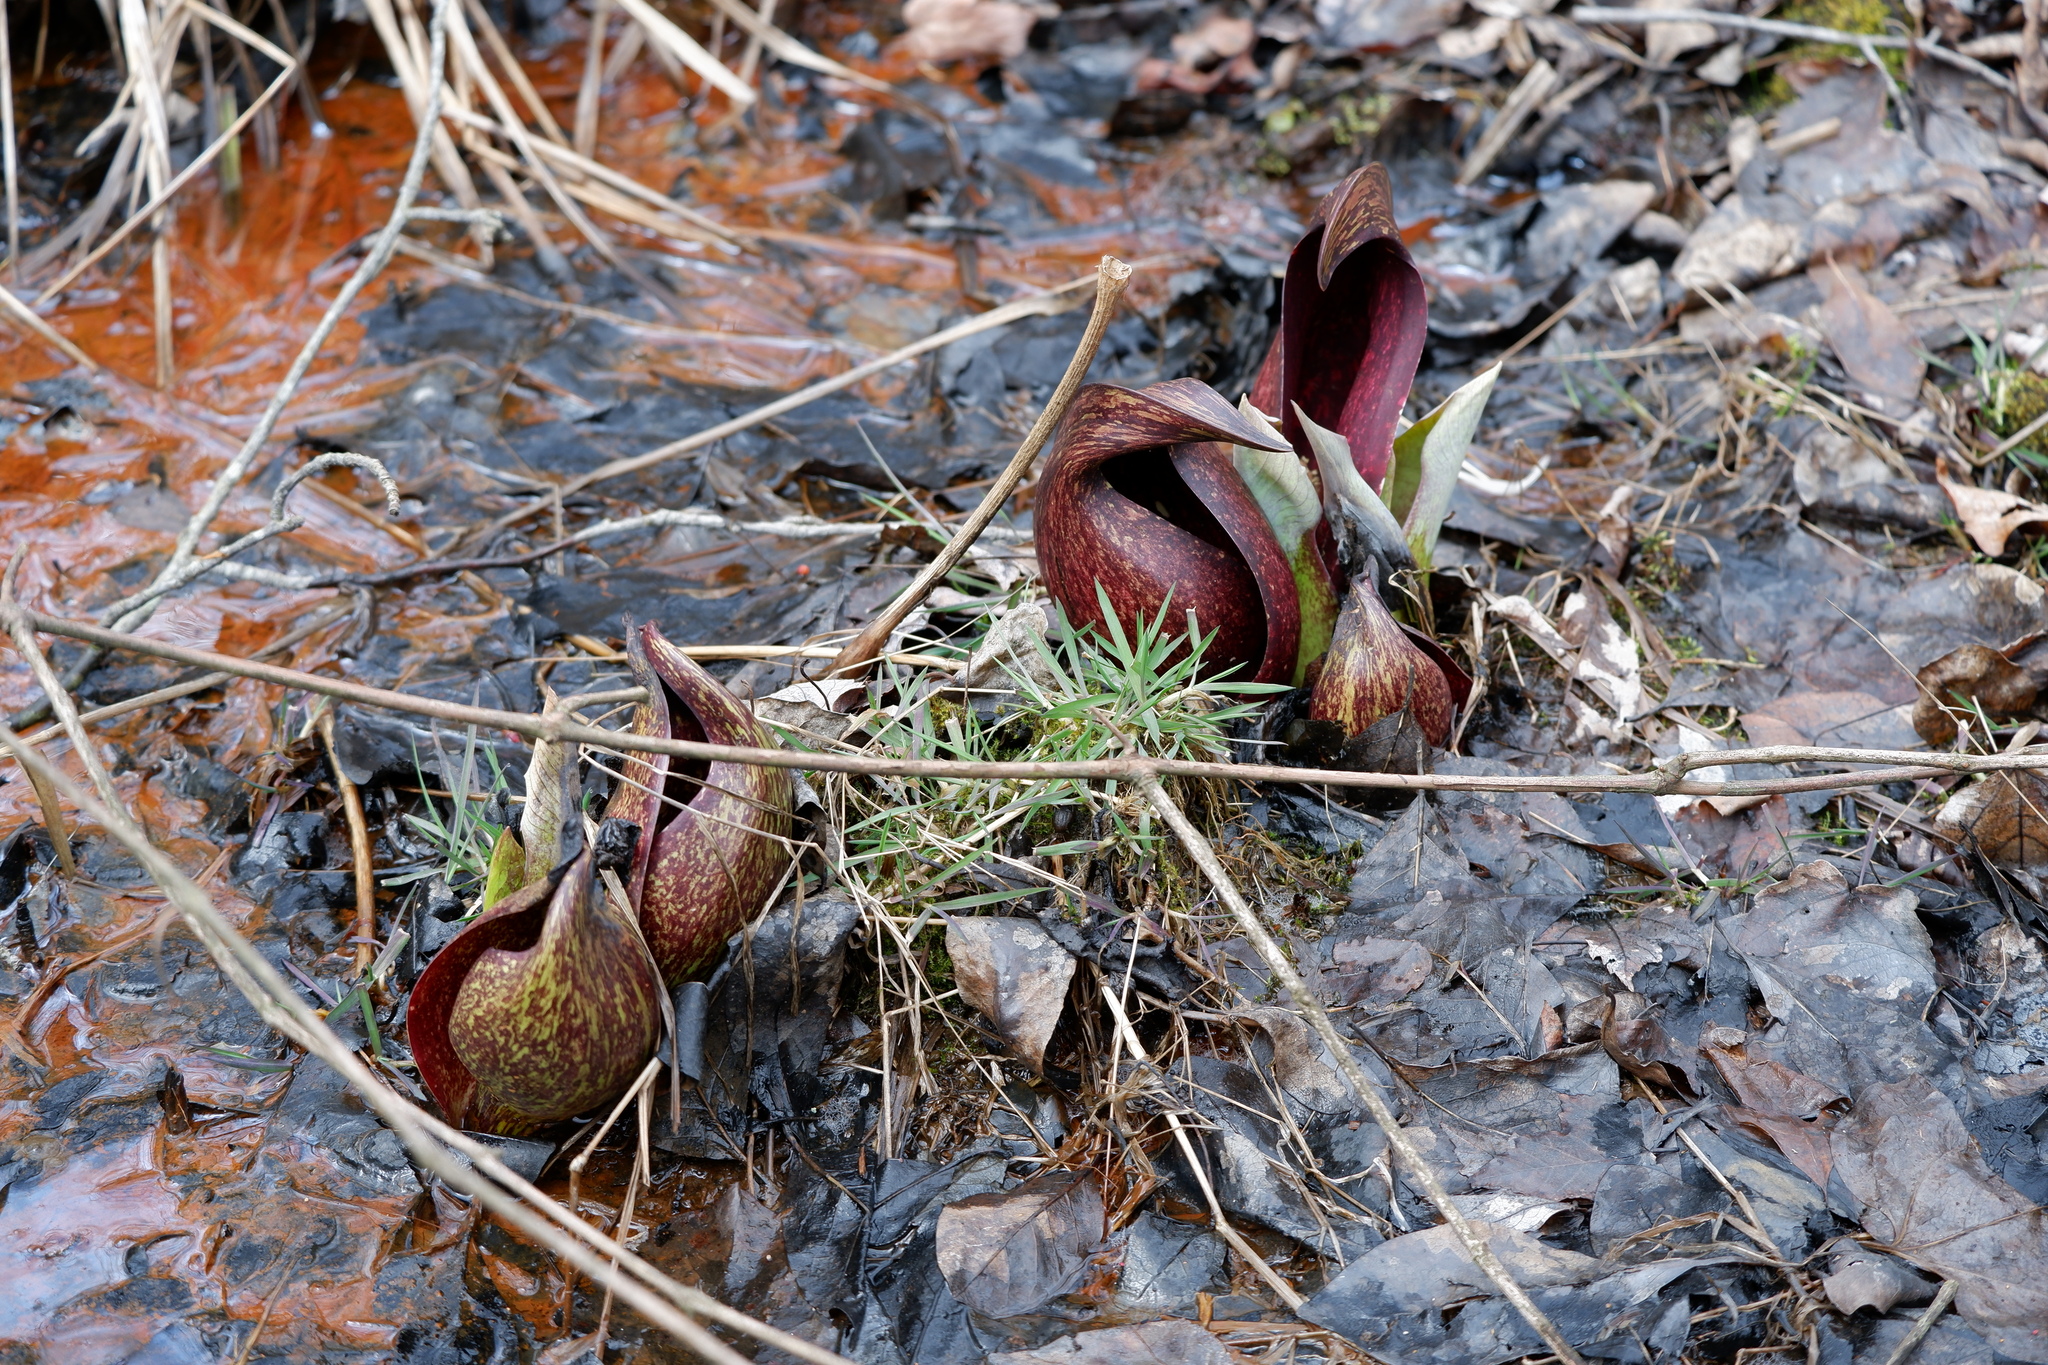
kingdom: Plantae
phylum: Tracheophyta
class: Liliopsida
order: Alismatales
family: Araceae
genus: Symplocarpus
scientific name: Symplocarpus foetidus
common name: Eastern skunk cabbage
